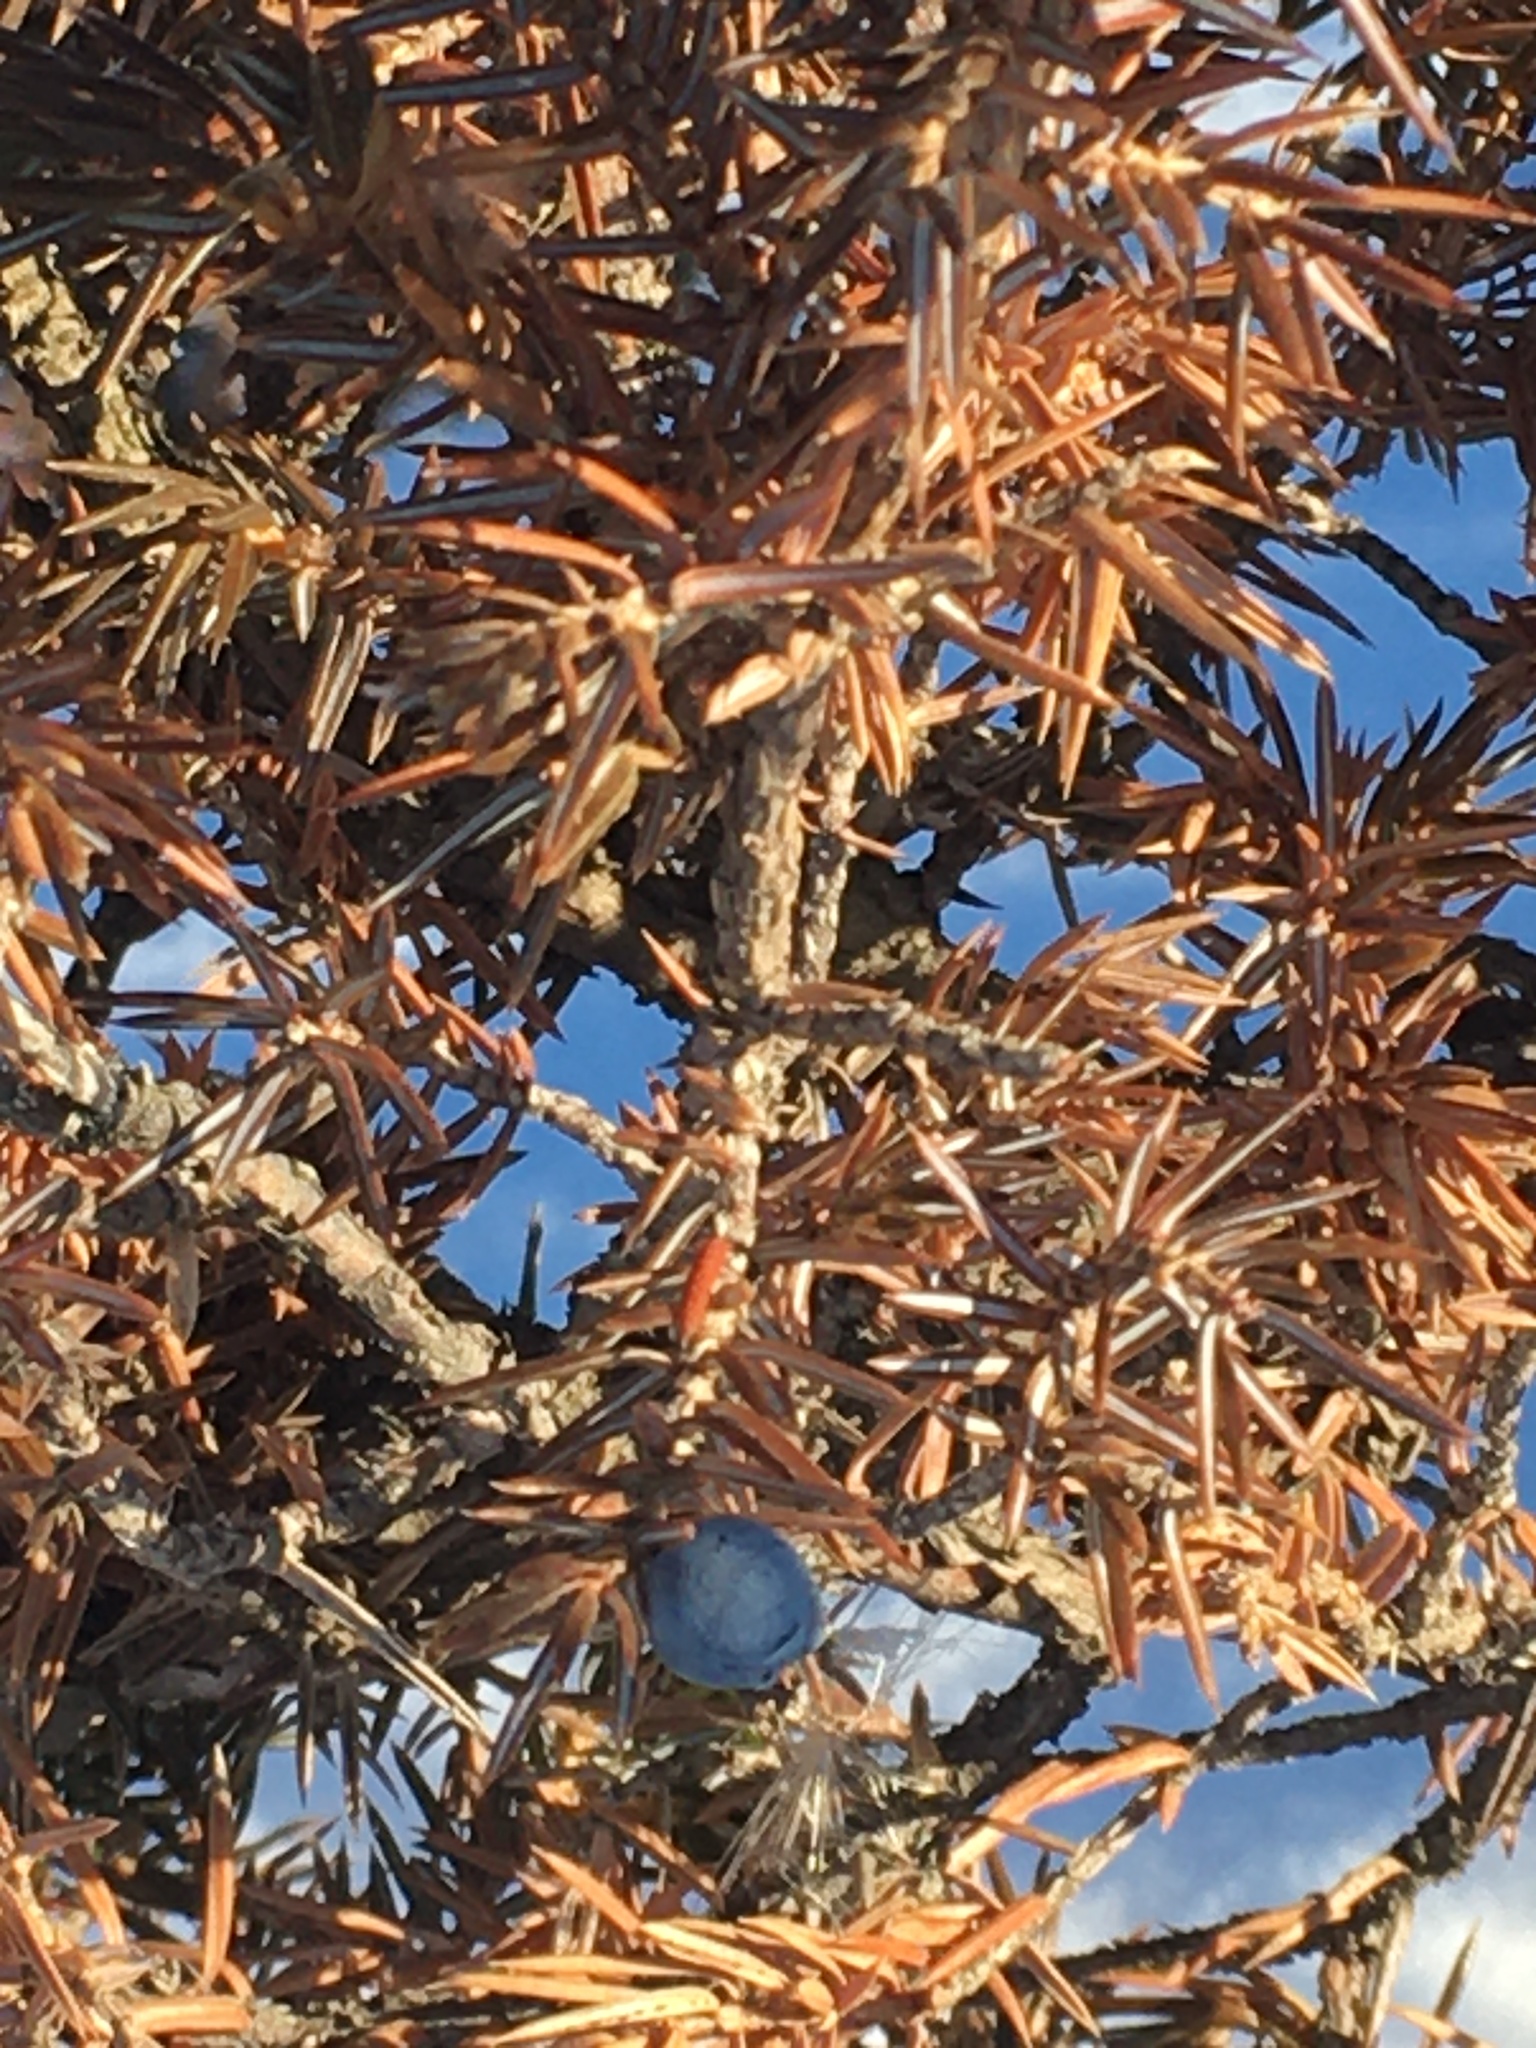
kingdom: Plantae
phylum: Tracheophyta
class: Pinopsida
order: Pinales
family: Cupressaceae
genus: Juniperus
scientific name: Juniperus communis
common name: Common juniper
